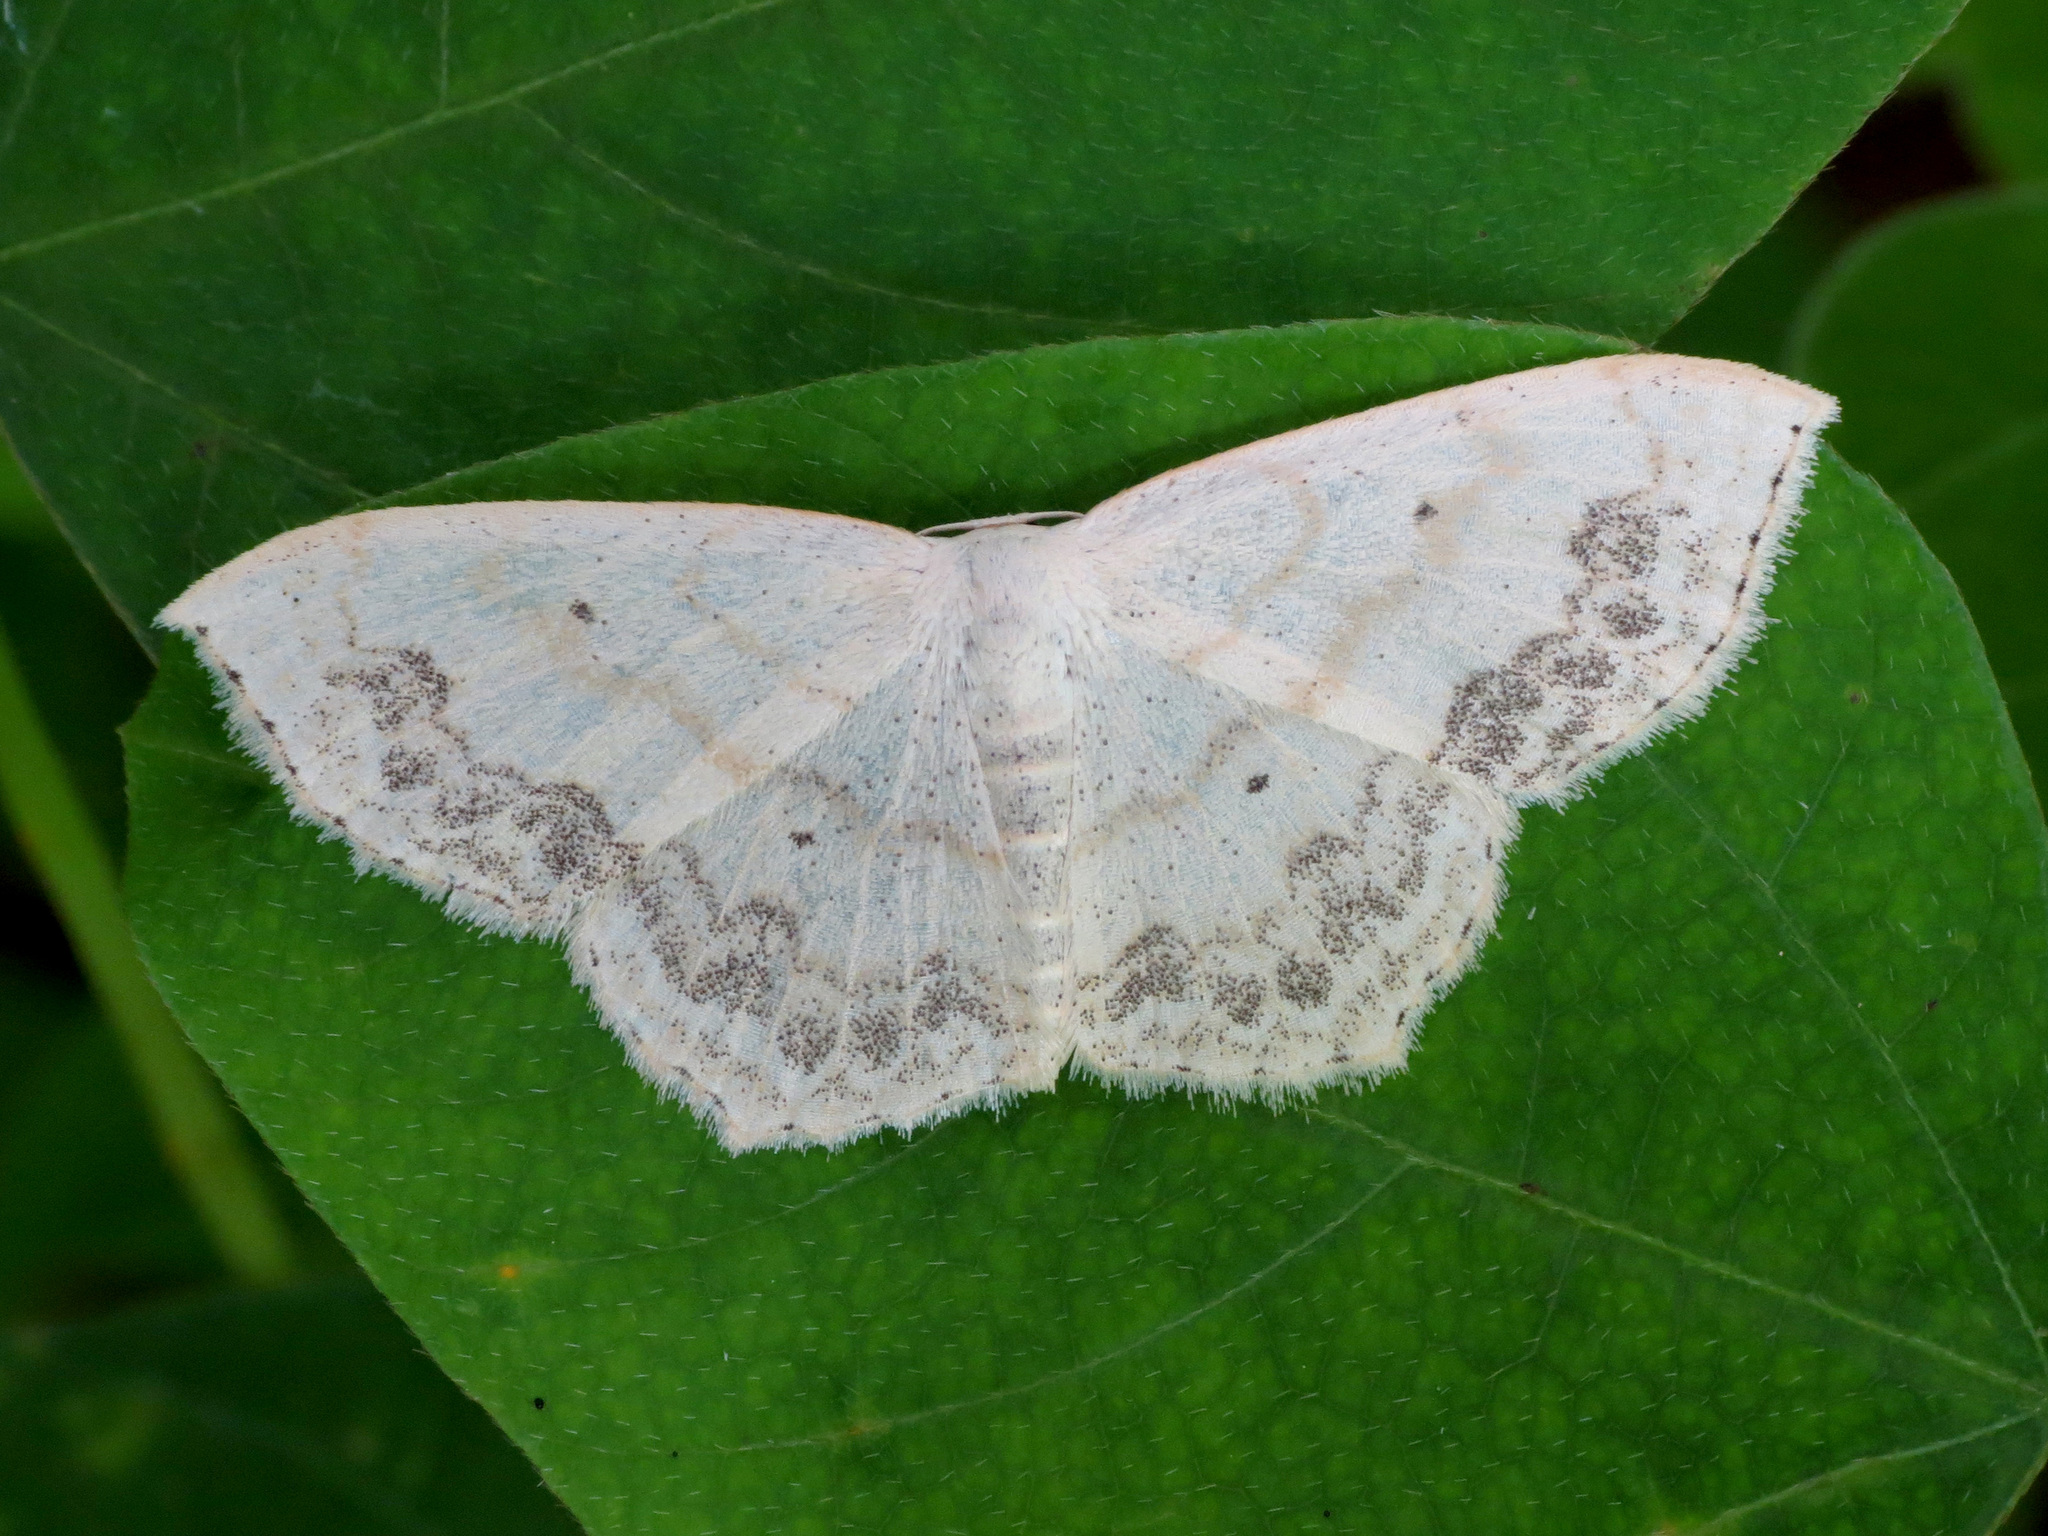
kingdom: Animalia
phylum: Arthropoda
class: Insecta
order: Lepidoptera
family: Geometridae
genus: Scopula
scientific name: Scopula limboundata
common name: Large lace border
